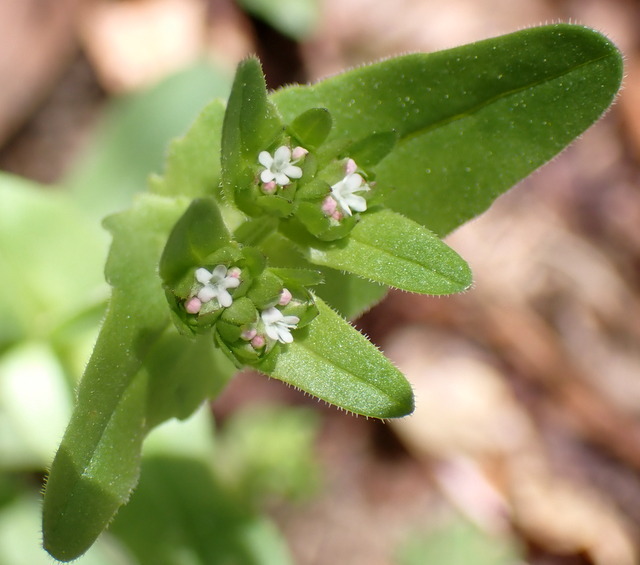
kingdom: Plantae
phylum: Tracheophyta
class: Magnoliopsida
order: Dipsacales
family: Caprifoliaceae
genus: Valerianella
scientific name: Valerianella radiata
